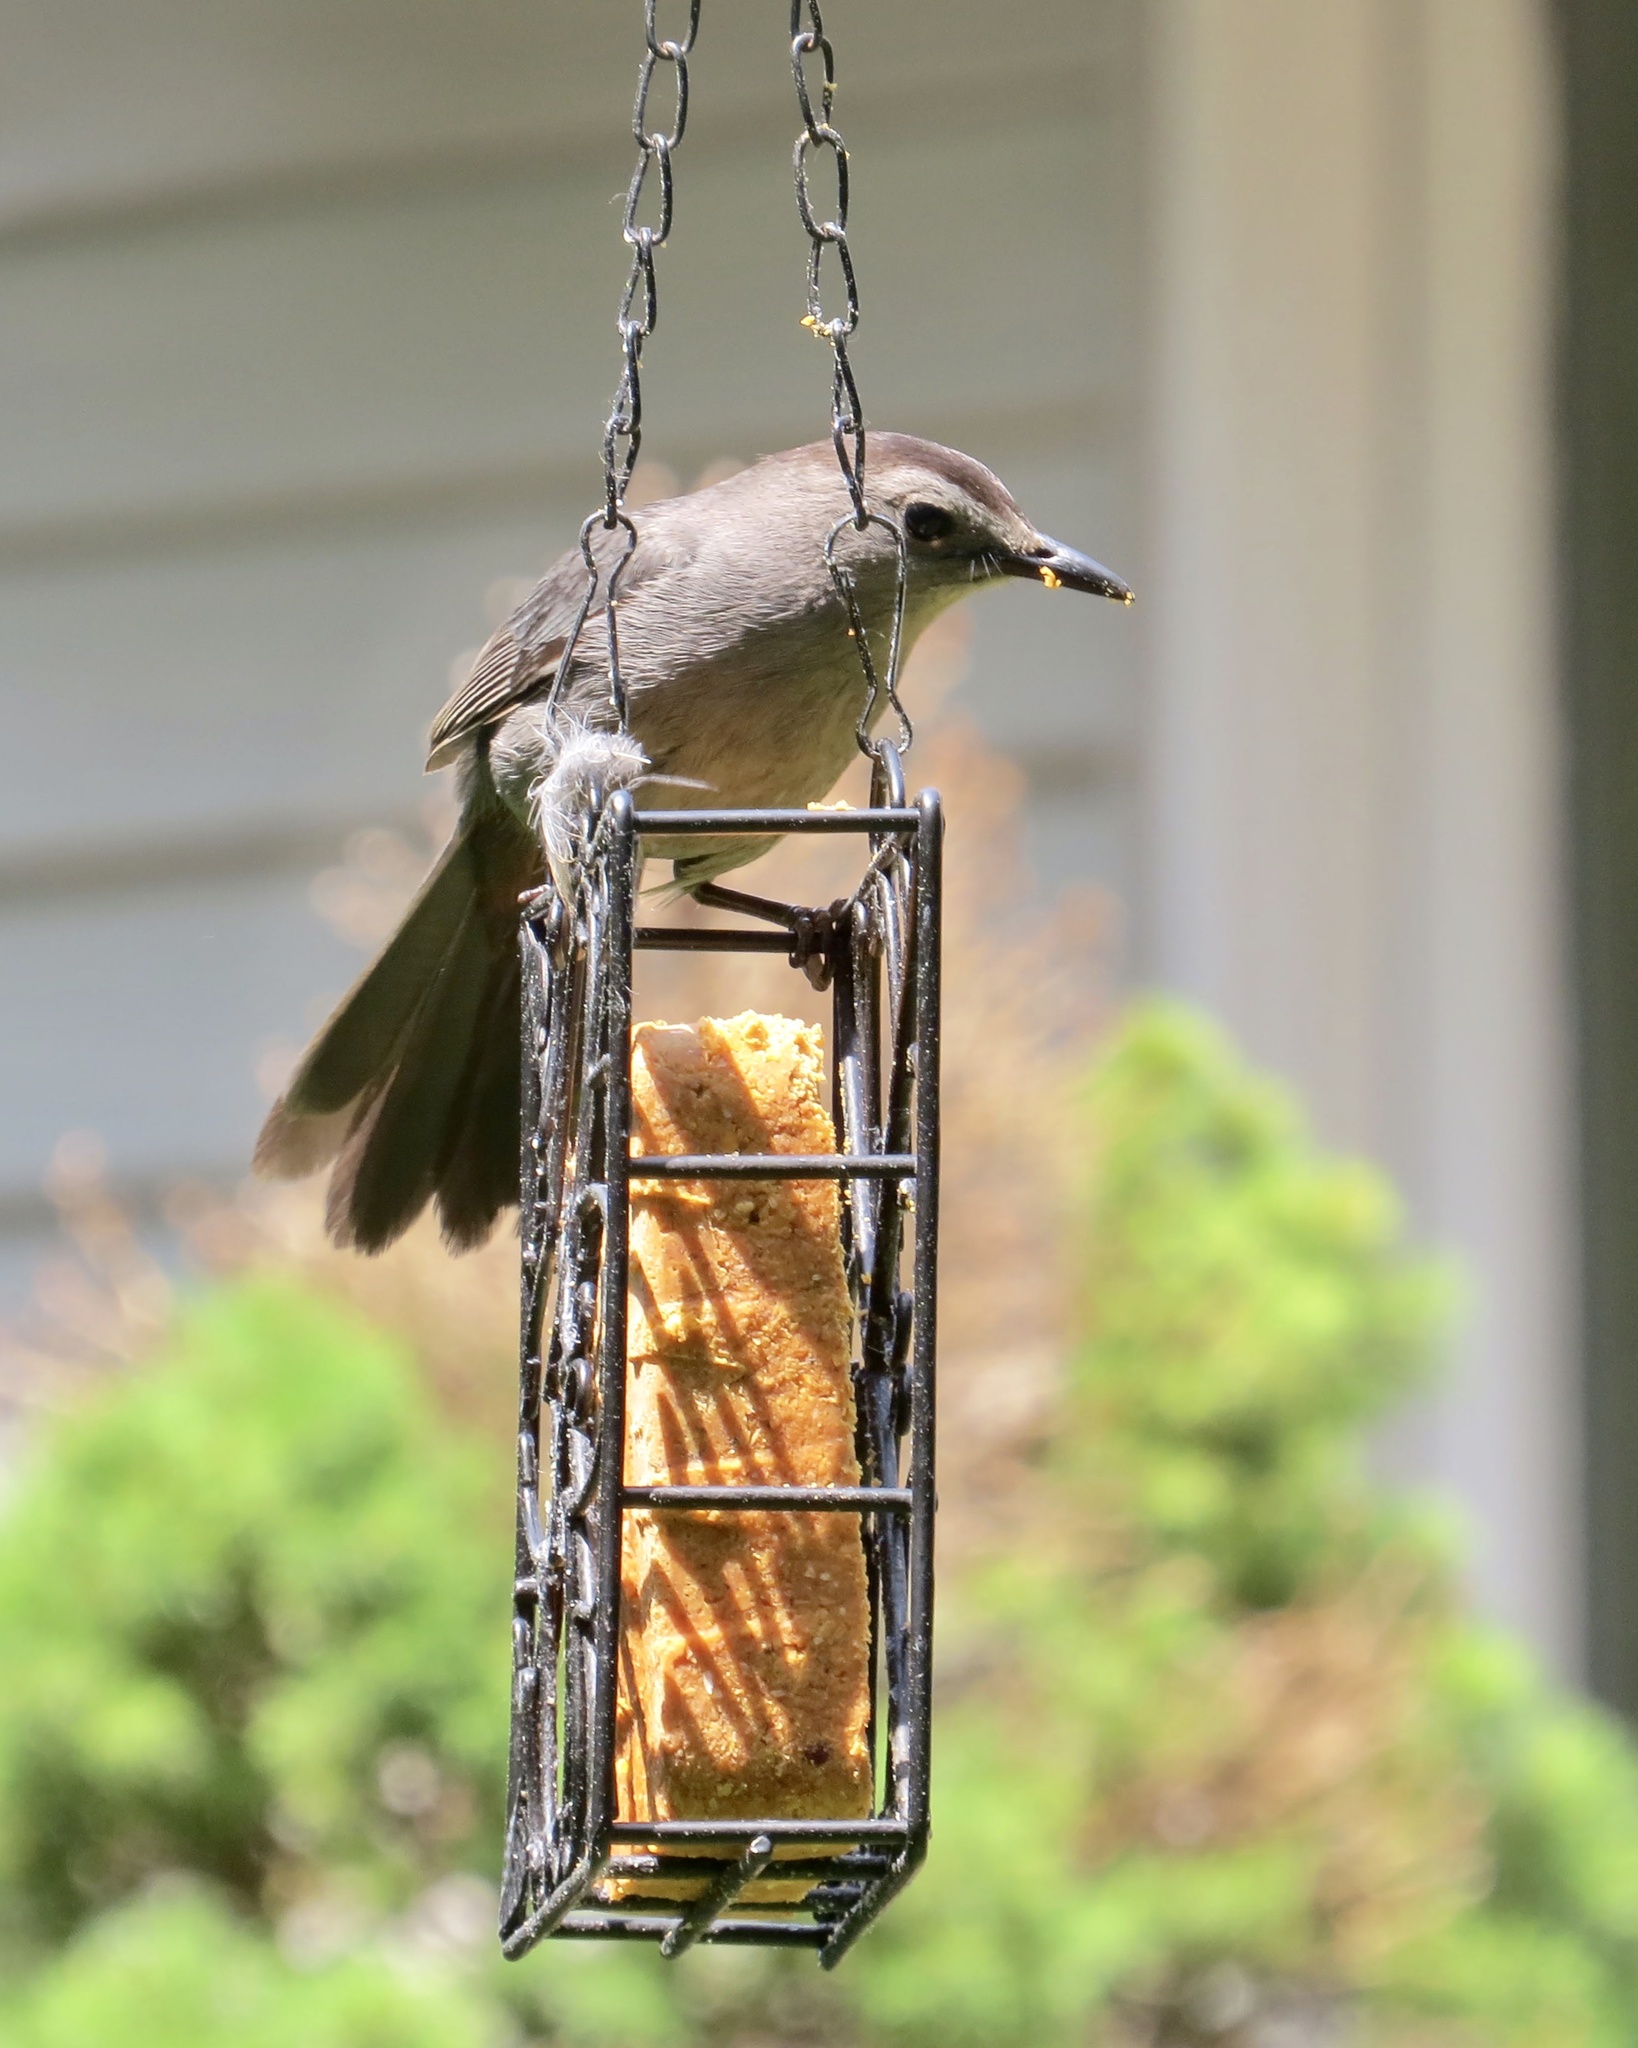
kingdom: Animalia
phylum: Chordata
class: Aves
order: Passeriformes
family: Mimidae
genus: Dumetella
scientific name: Dumetella carolinensis
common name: Gray catbird
